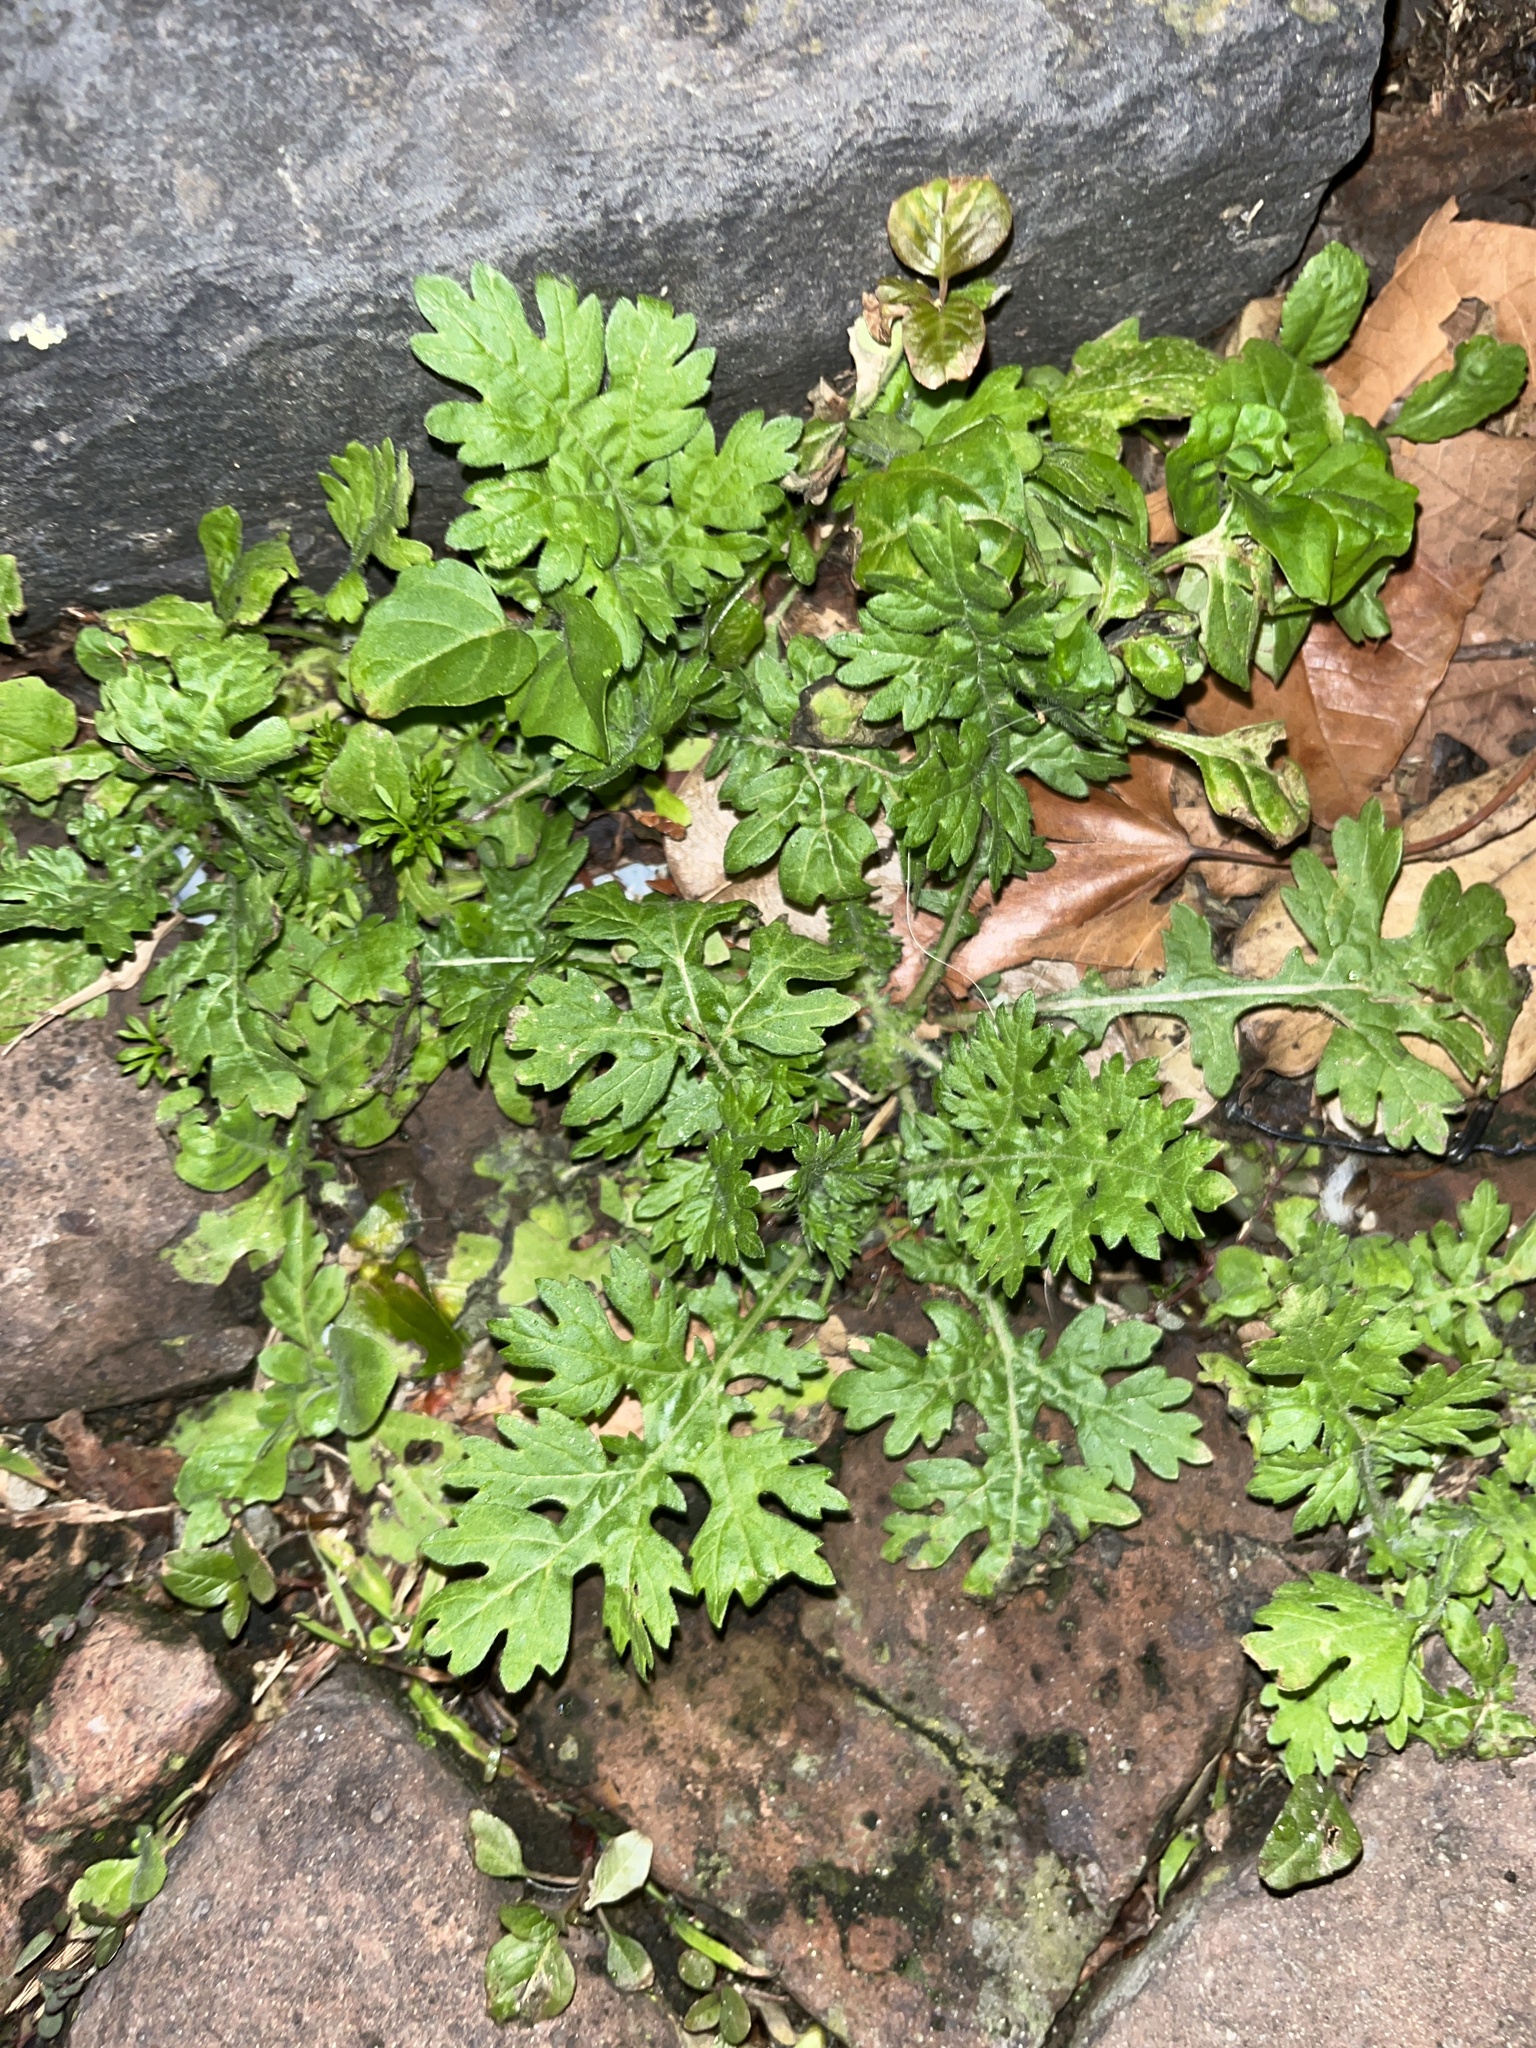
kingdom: Plantae
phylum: Tracheophyta
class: Magnoliopsida
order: Asterales
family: Asteraceae
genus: Parthenium
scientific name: Parthenium hysterophorus
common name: Santa maria feverfew
